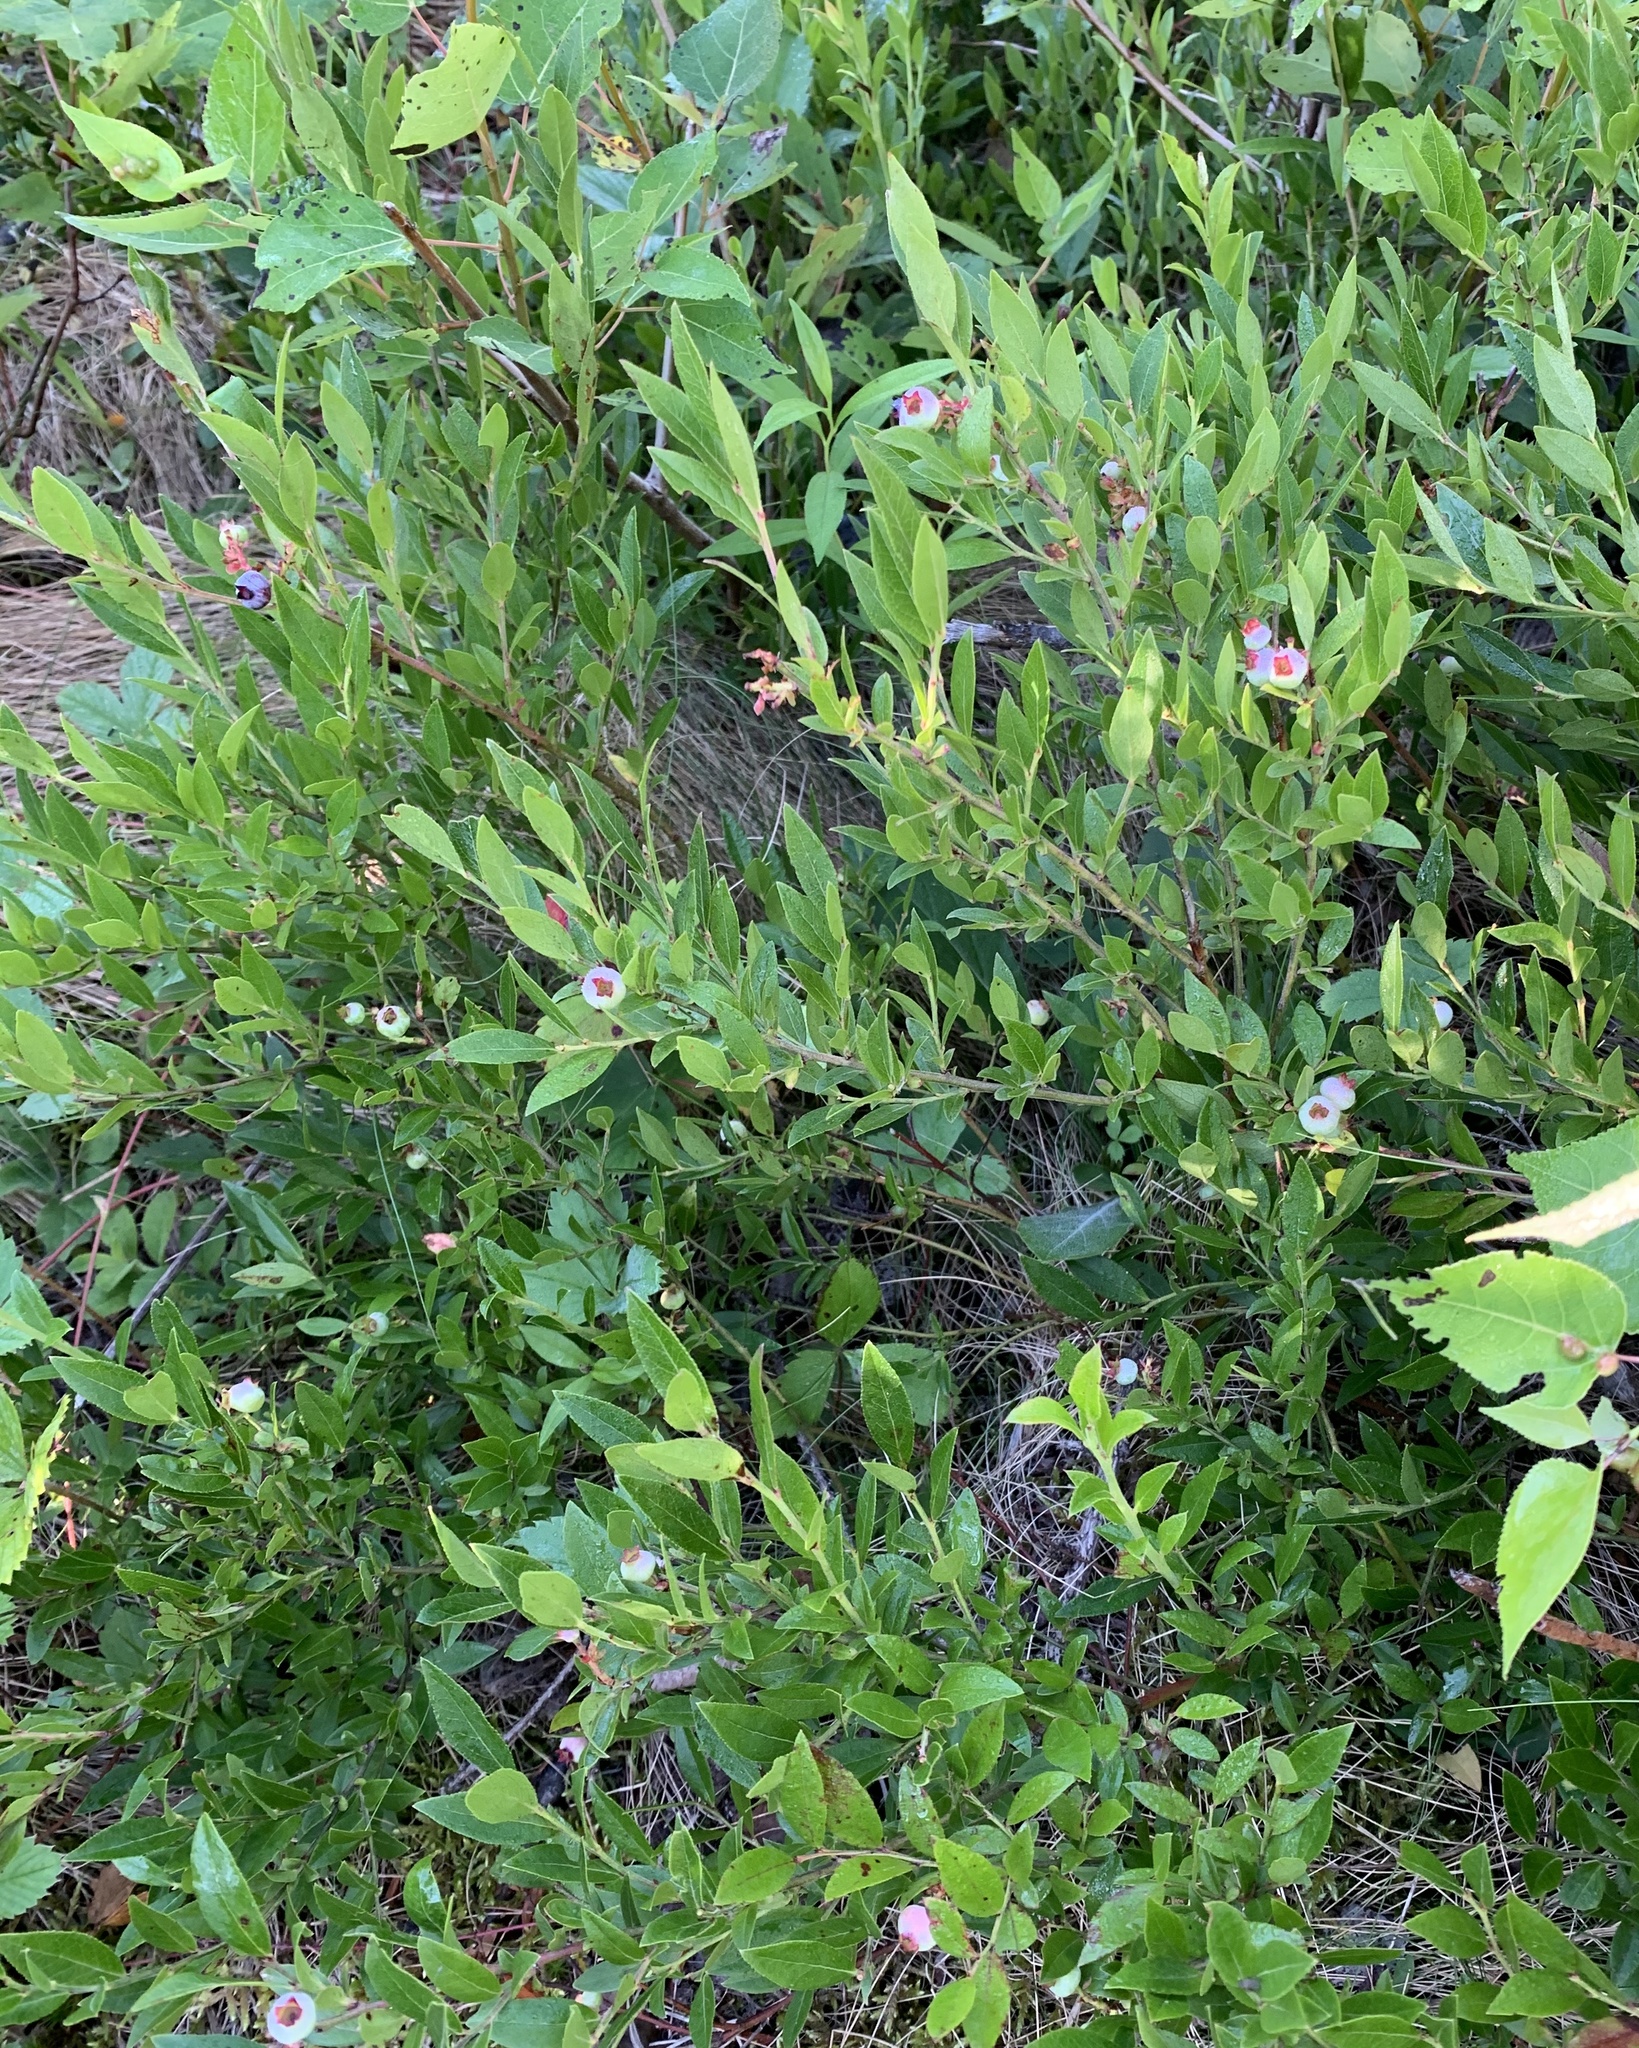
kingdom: Plantae
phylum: Tracheophyta
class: Magnoliopsida
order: Ericales
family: Ericaceae
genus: Vaccinium
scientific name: Vaccinium angustifolium
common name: Early lowbush blueberry
